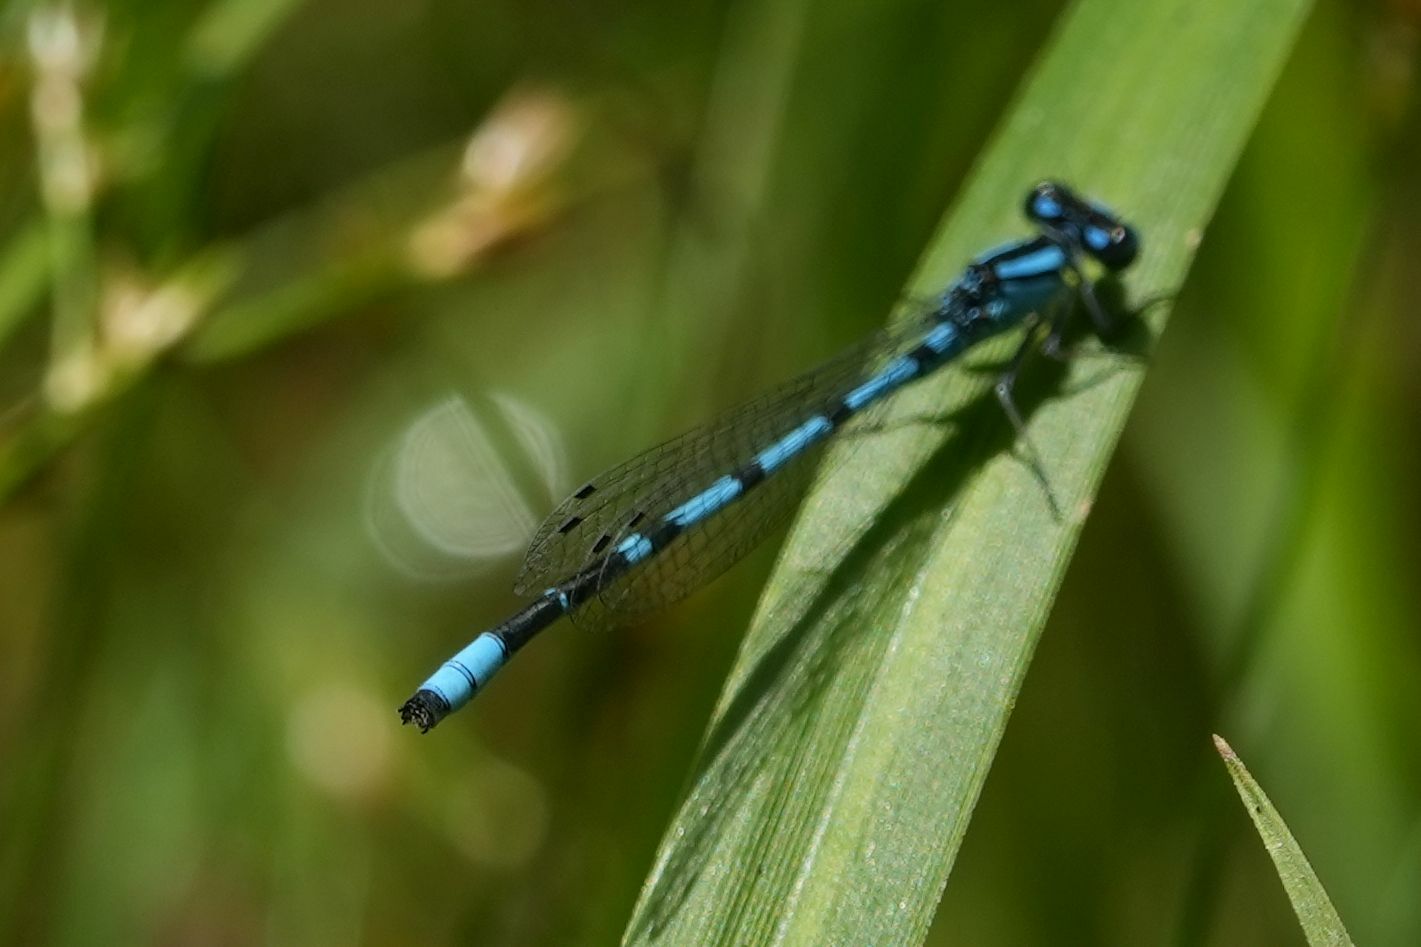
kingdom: Animalia
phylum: Arthropoda
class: Insecta
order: Odonata
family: Coenagrionidae
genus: Enallagma
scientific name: Enallagma ebrium
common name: Marsh bluet
